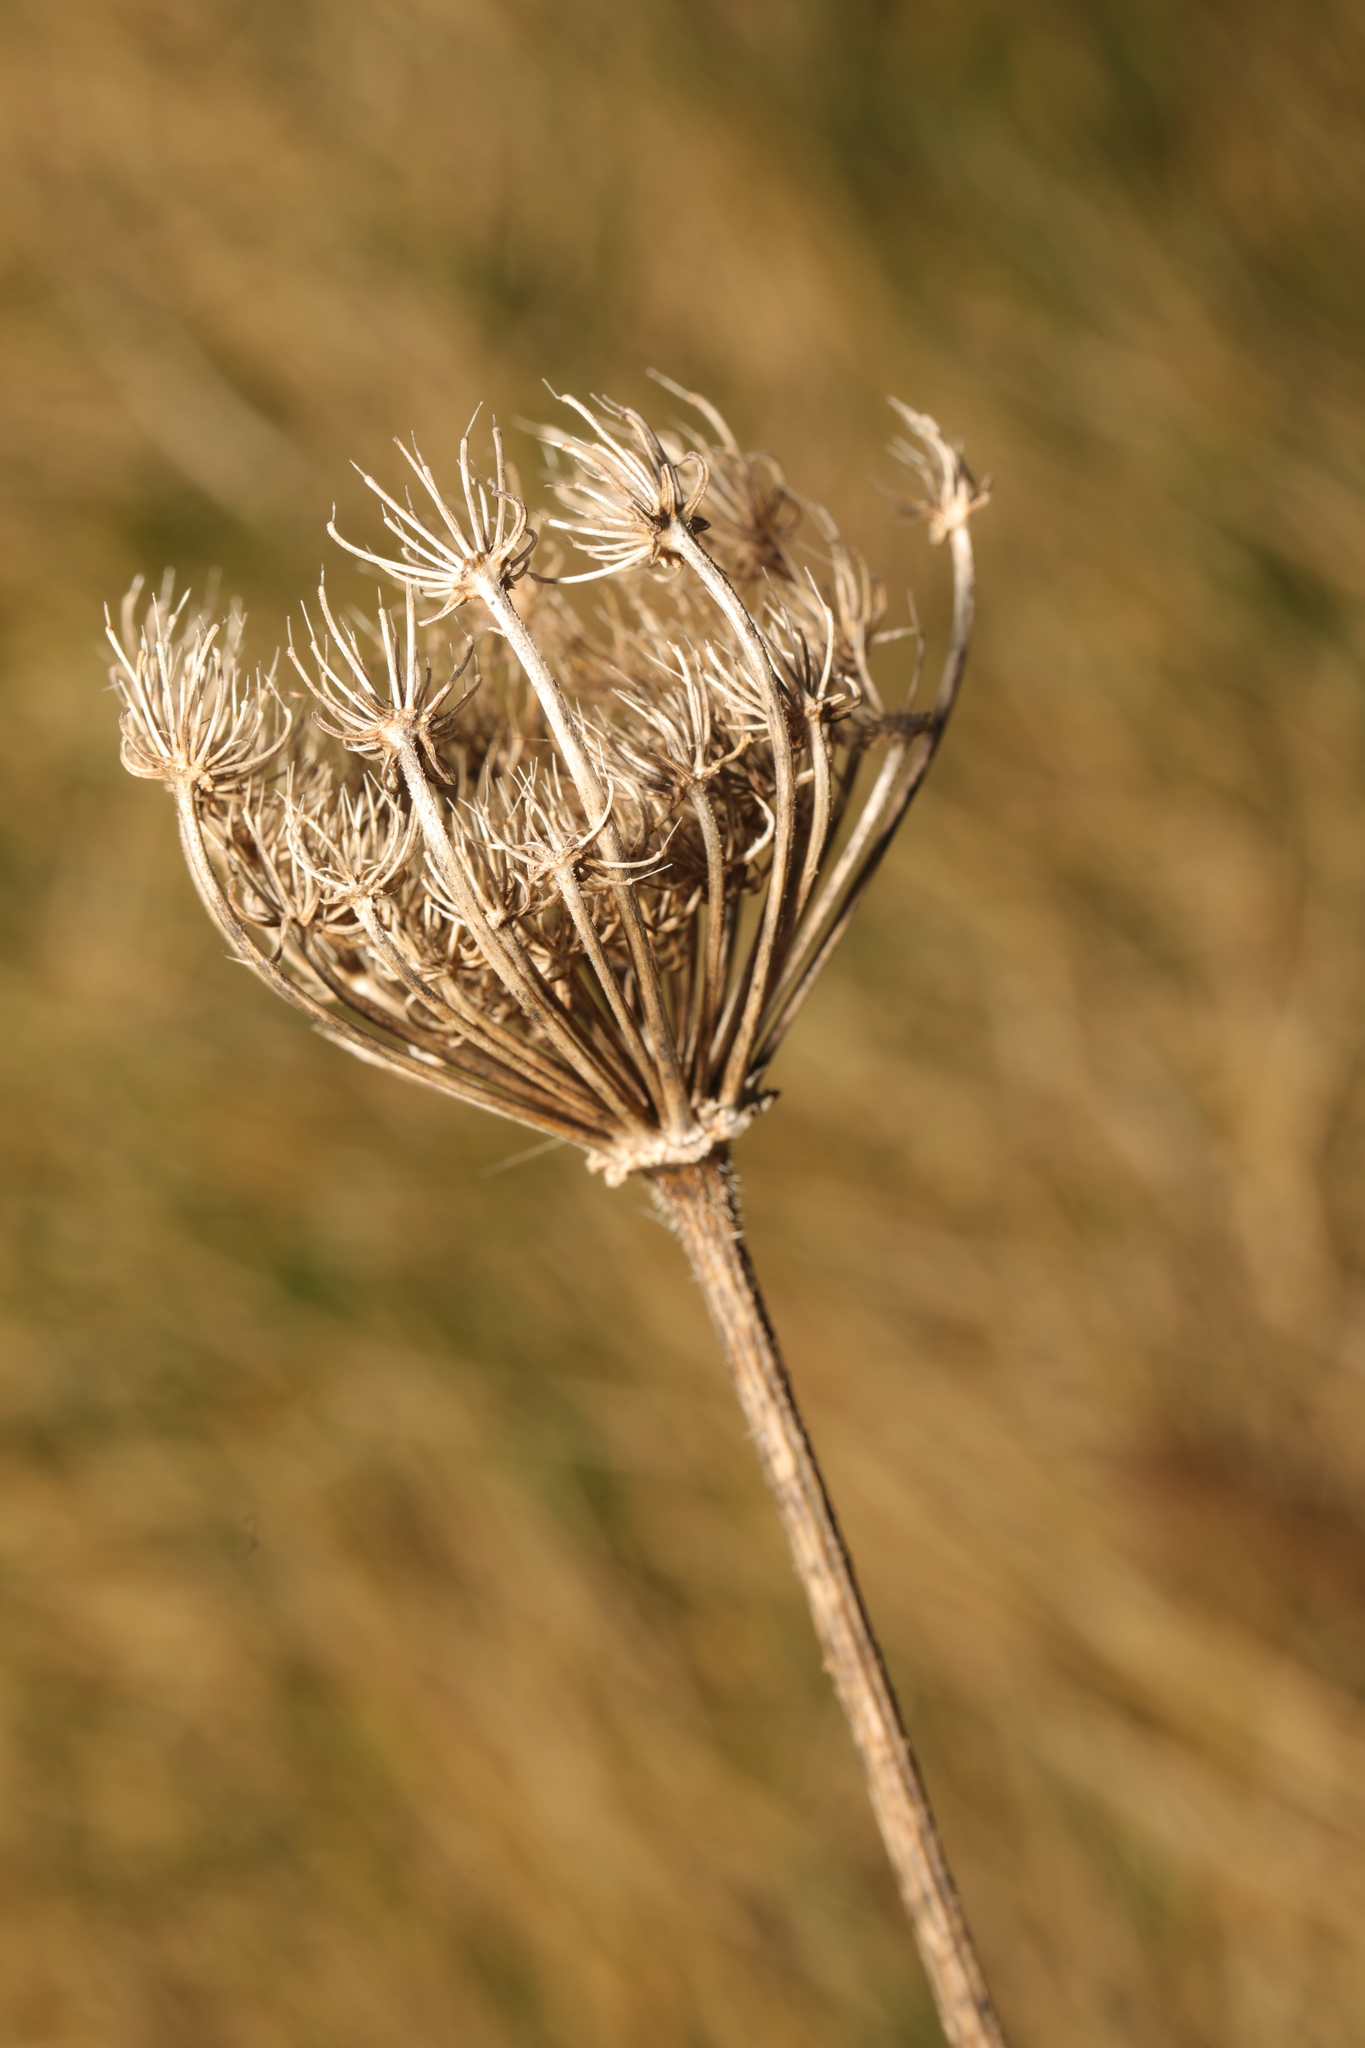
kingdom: Plantae
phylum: Tracheophyta
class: Magnoliopsida
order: Apiales
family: Apiaceae
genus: Daucus
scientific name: Daucus carota
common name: Wild carrot
